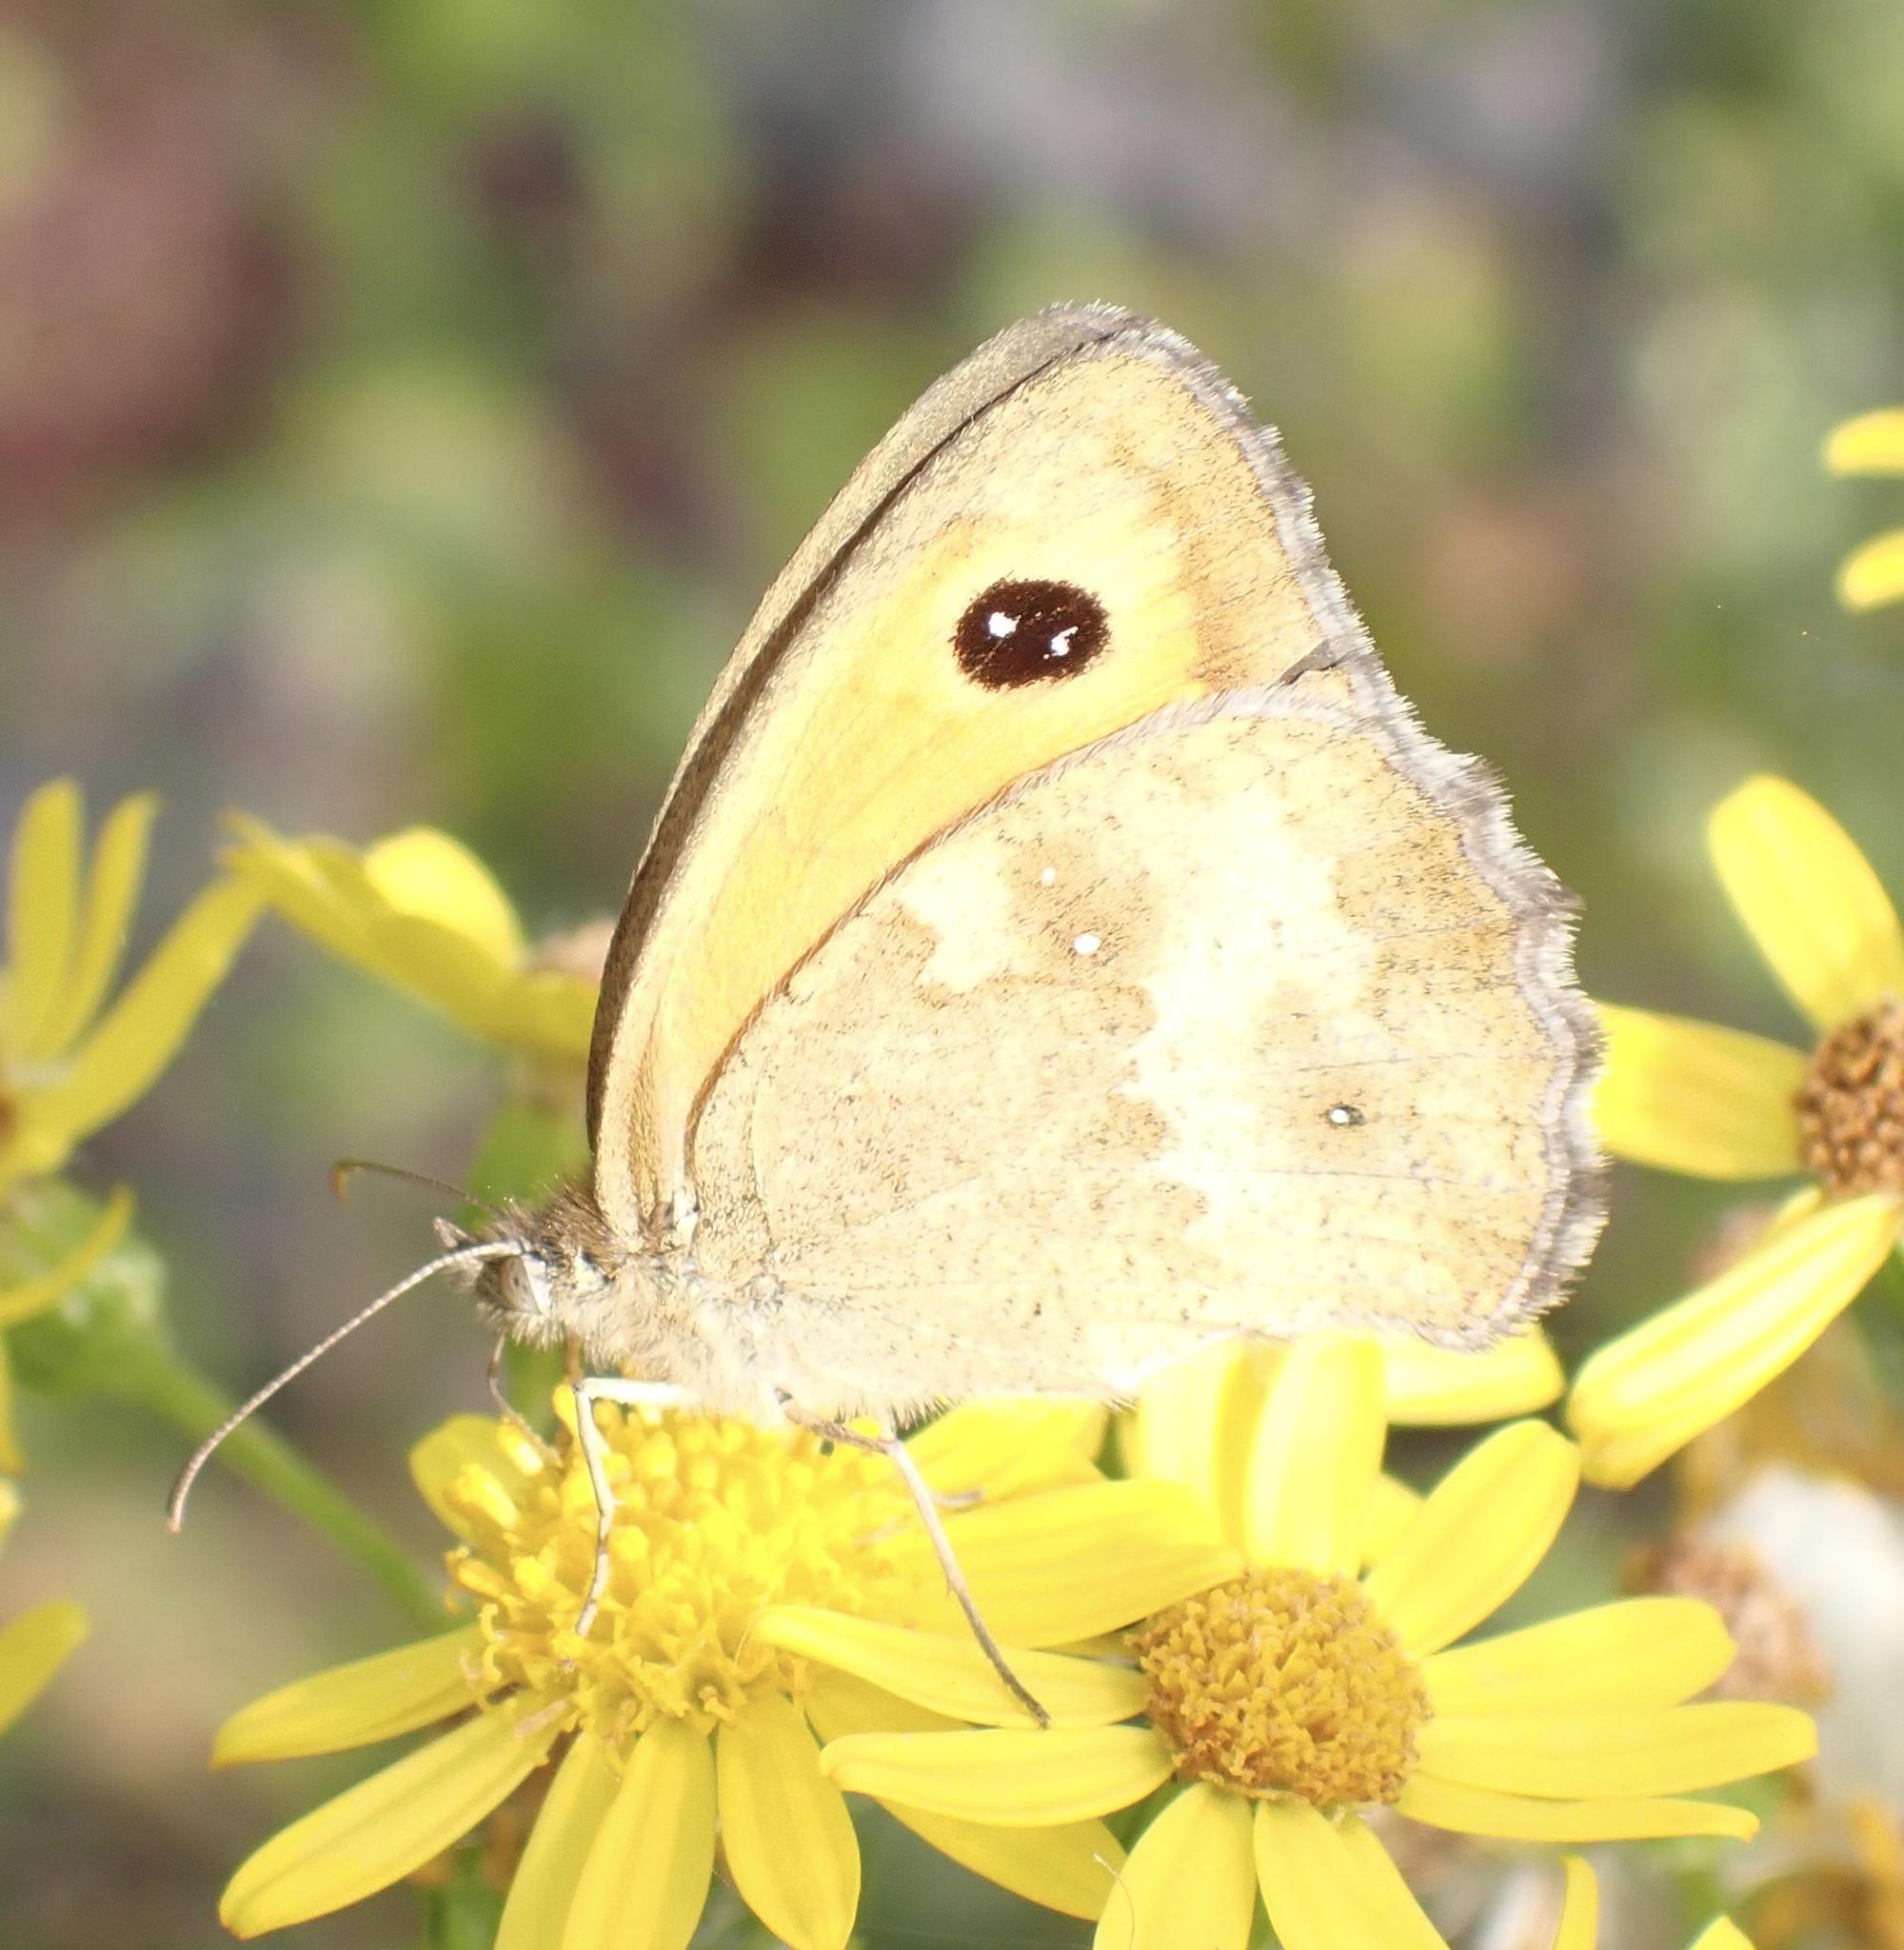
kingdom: Animalia
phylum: Arthropoda
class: Insecta
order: Lepidoptera
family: Nymphalidae
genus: Pyronia
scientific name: Pyronia tithonus
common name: Gatekeeper
